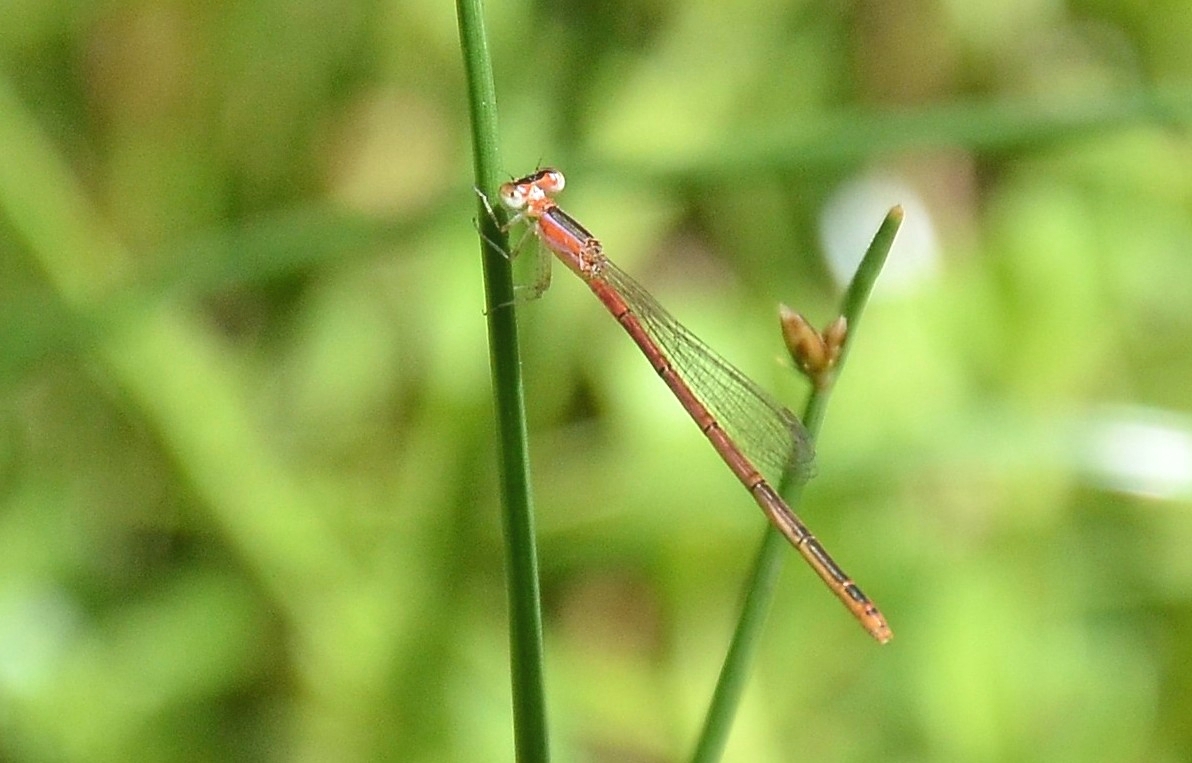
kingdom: Animalia
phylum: Arthropoda
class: Insecta
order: Odonata
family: Coenagrionidae
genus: Agriocnemis
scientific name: Agriocnemis pygmaea
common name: Pygmy wisp
